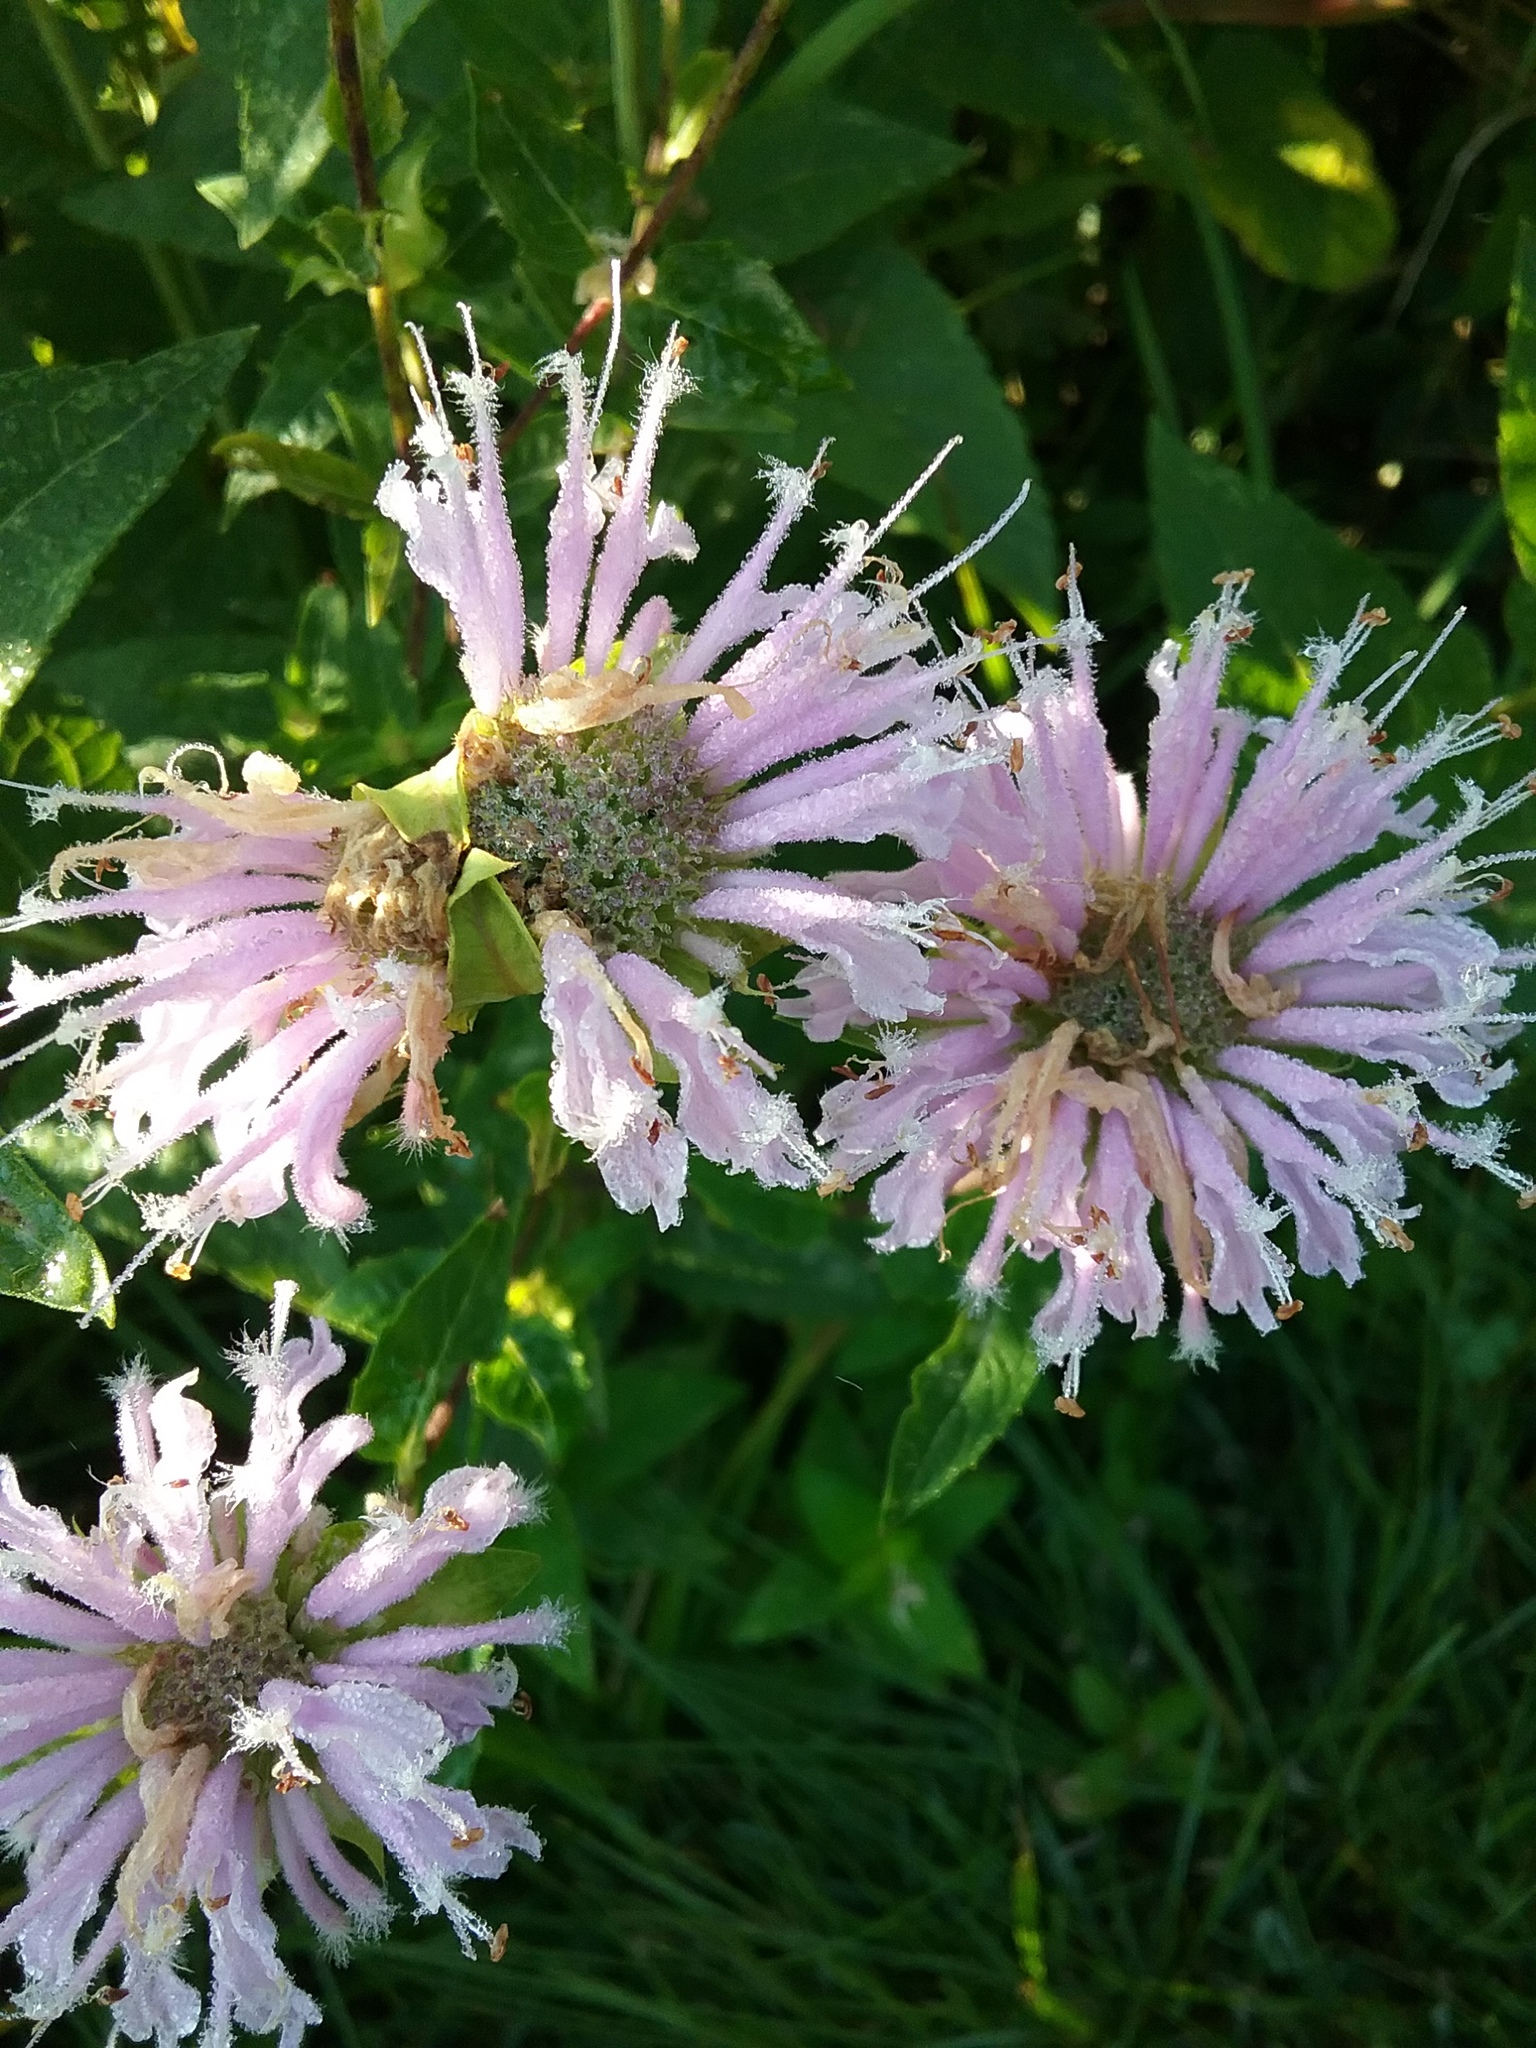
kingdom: Plantae
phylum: Tracheophyta
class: Magnoliopsida
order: Lamiales
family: Lamiaceae
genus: Monarda
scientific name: Monarda fistulosa
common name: Purple beebalm
